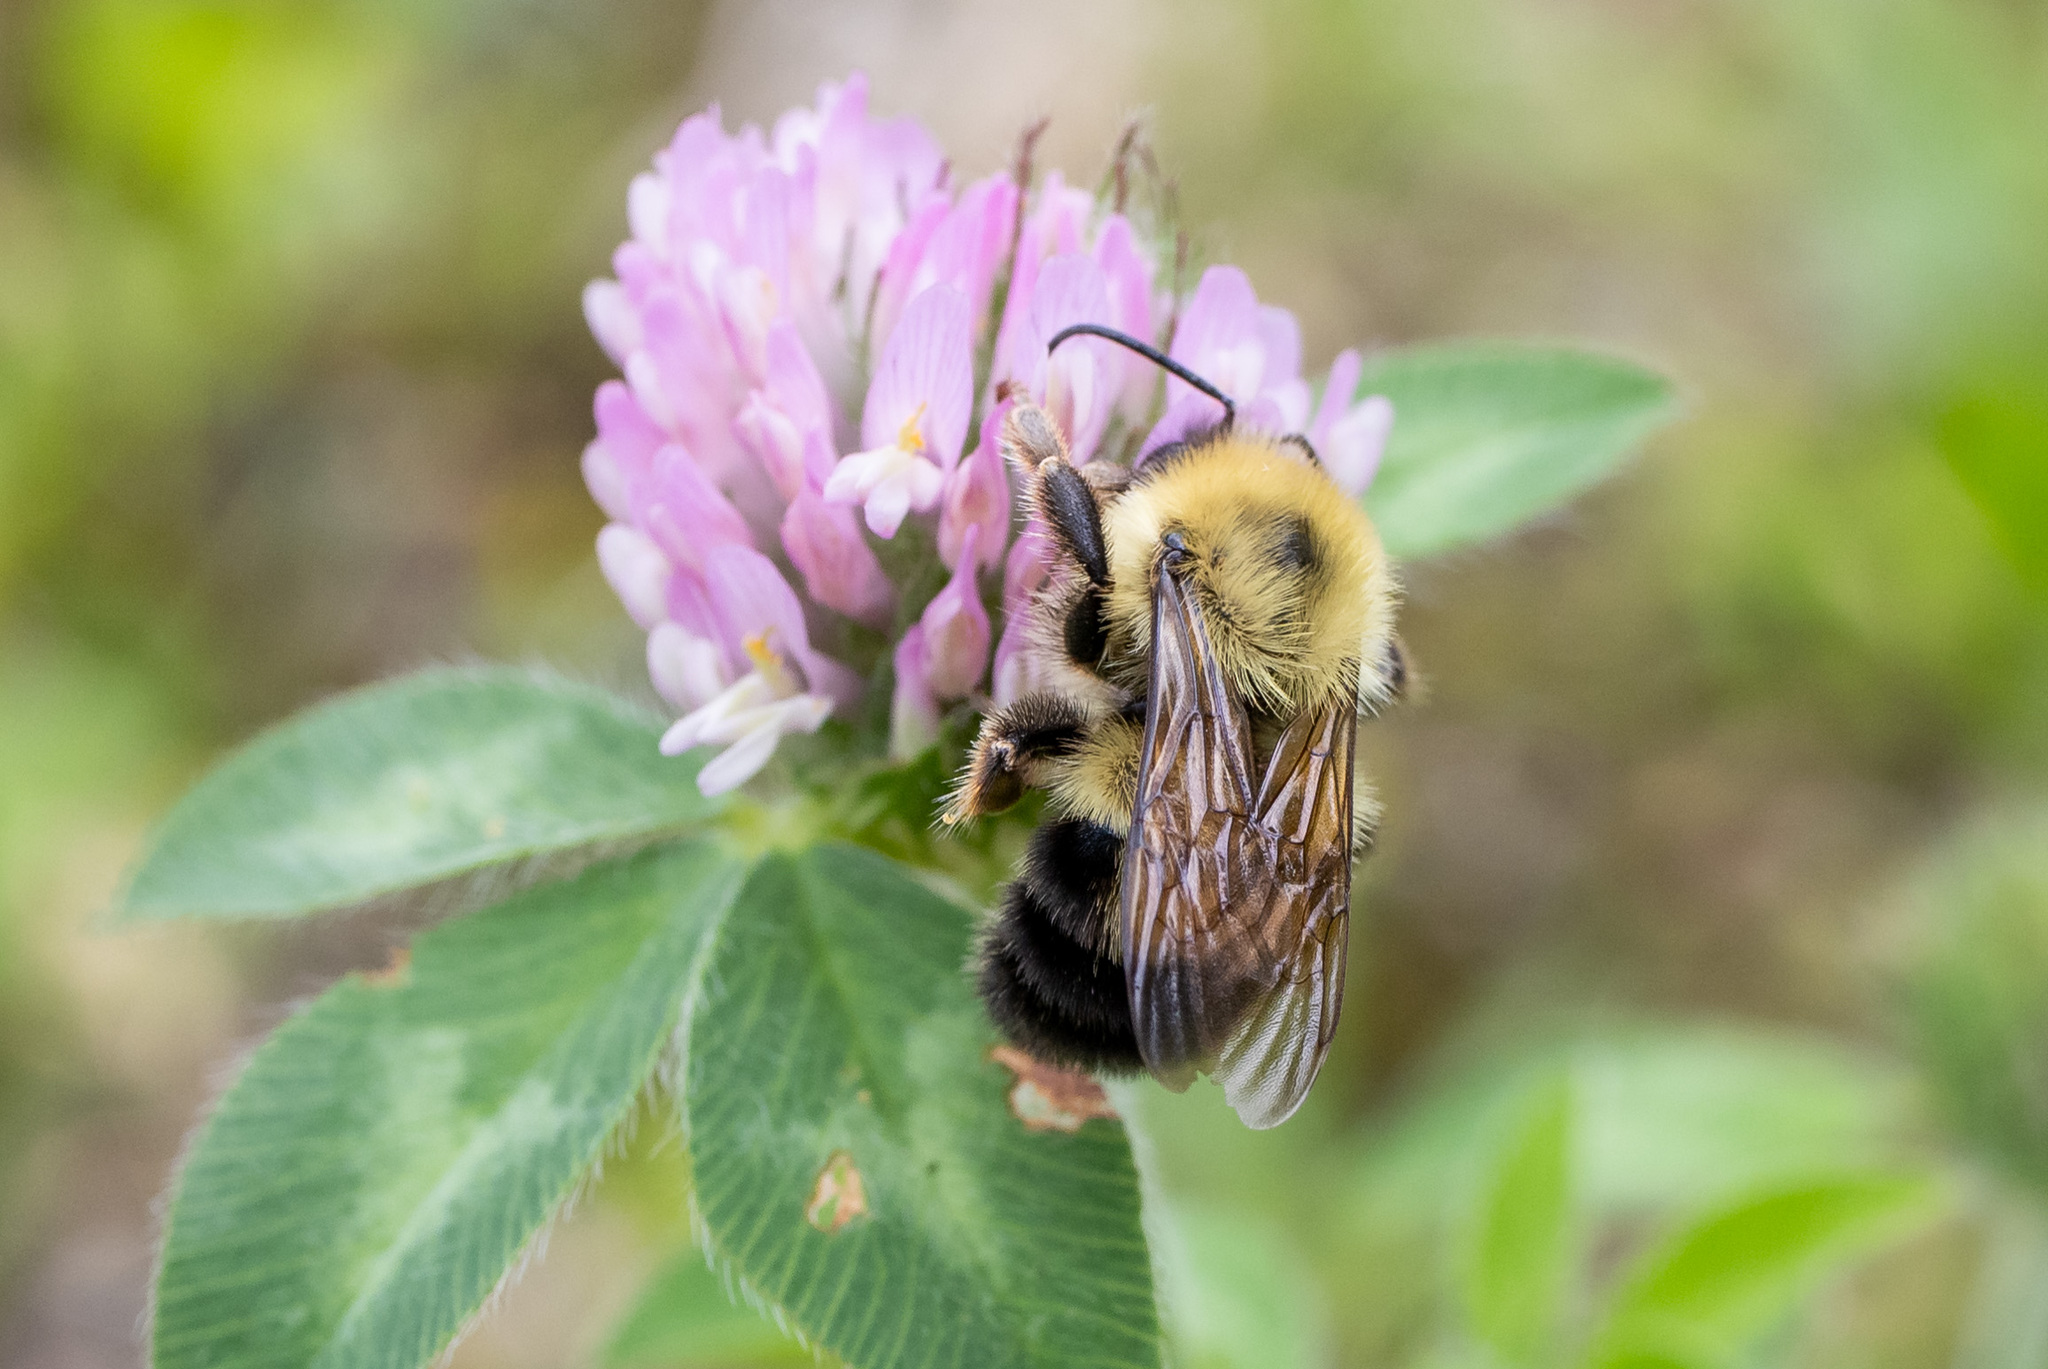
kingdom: Animalia
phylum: Arthropoda
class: Insecta
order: Hymenoptera
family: Apidae
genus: Bombus
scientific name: Bombus bimaculatus
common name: Two-spotted bumble bee
